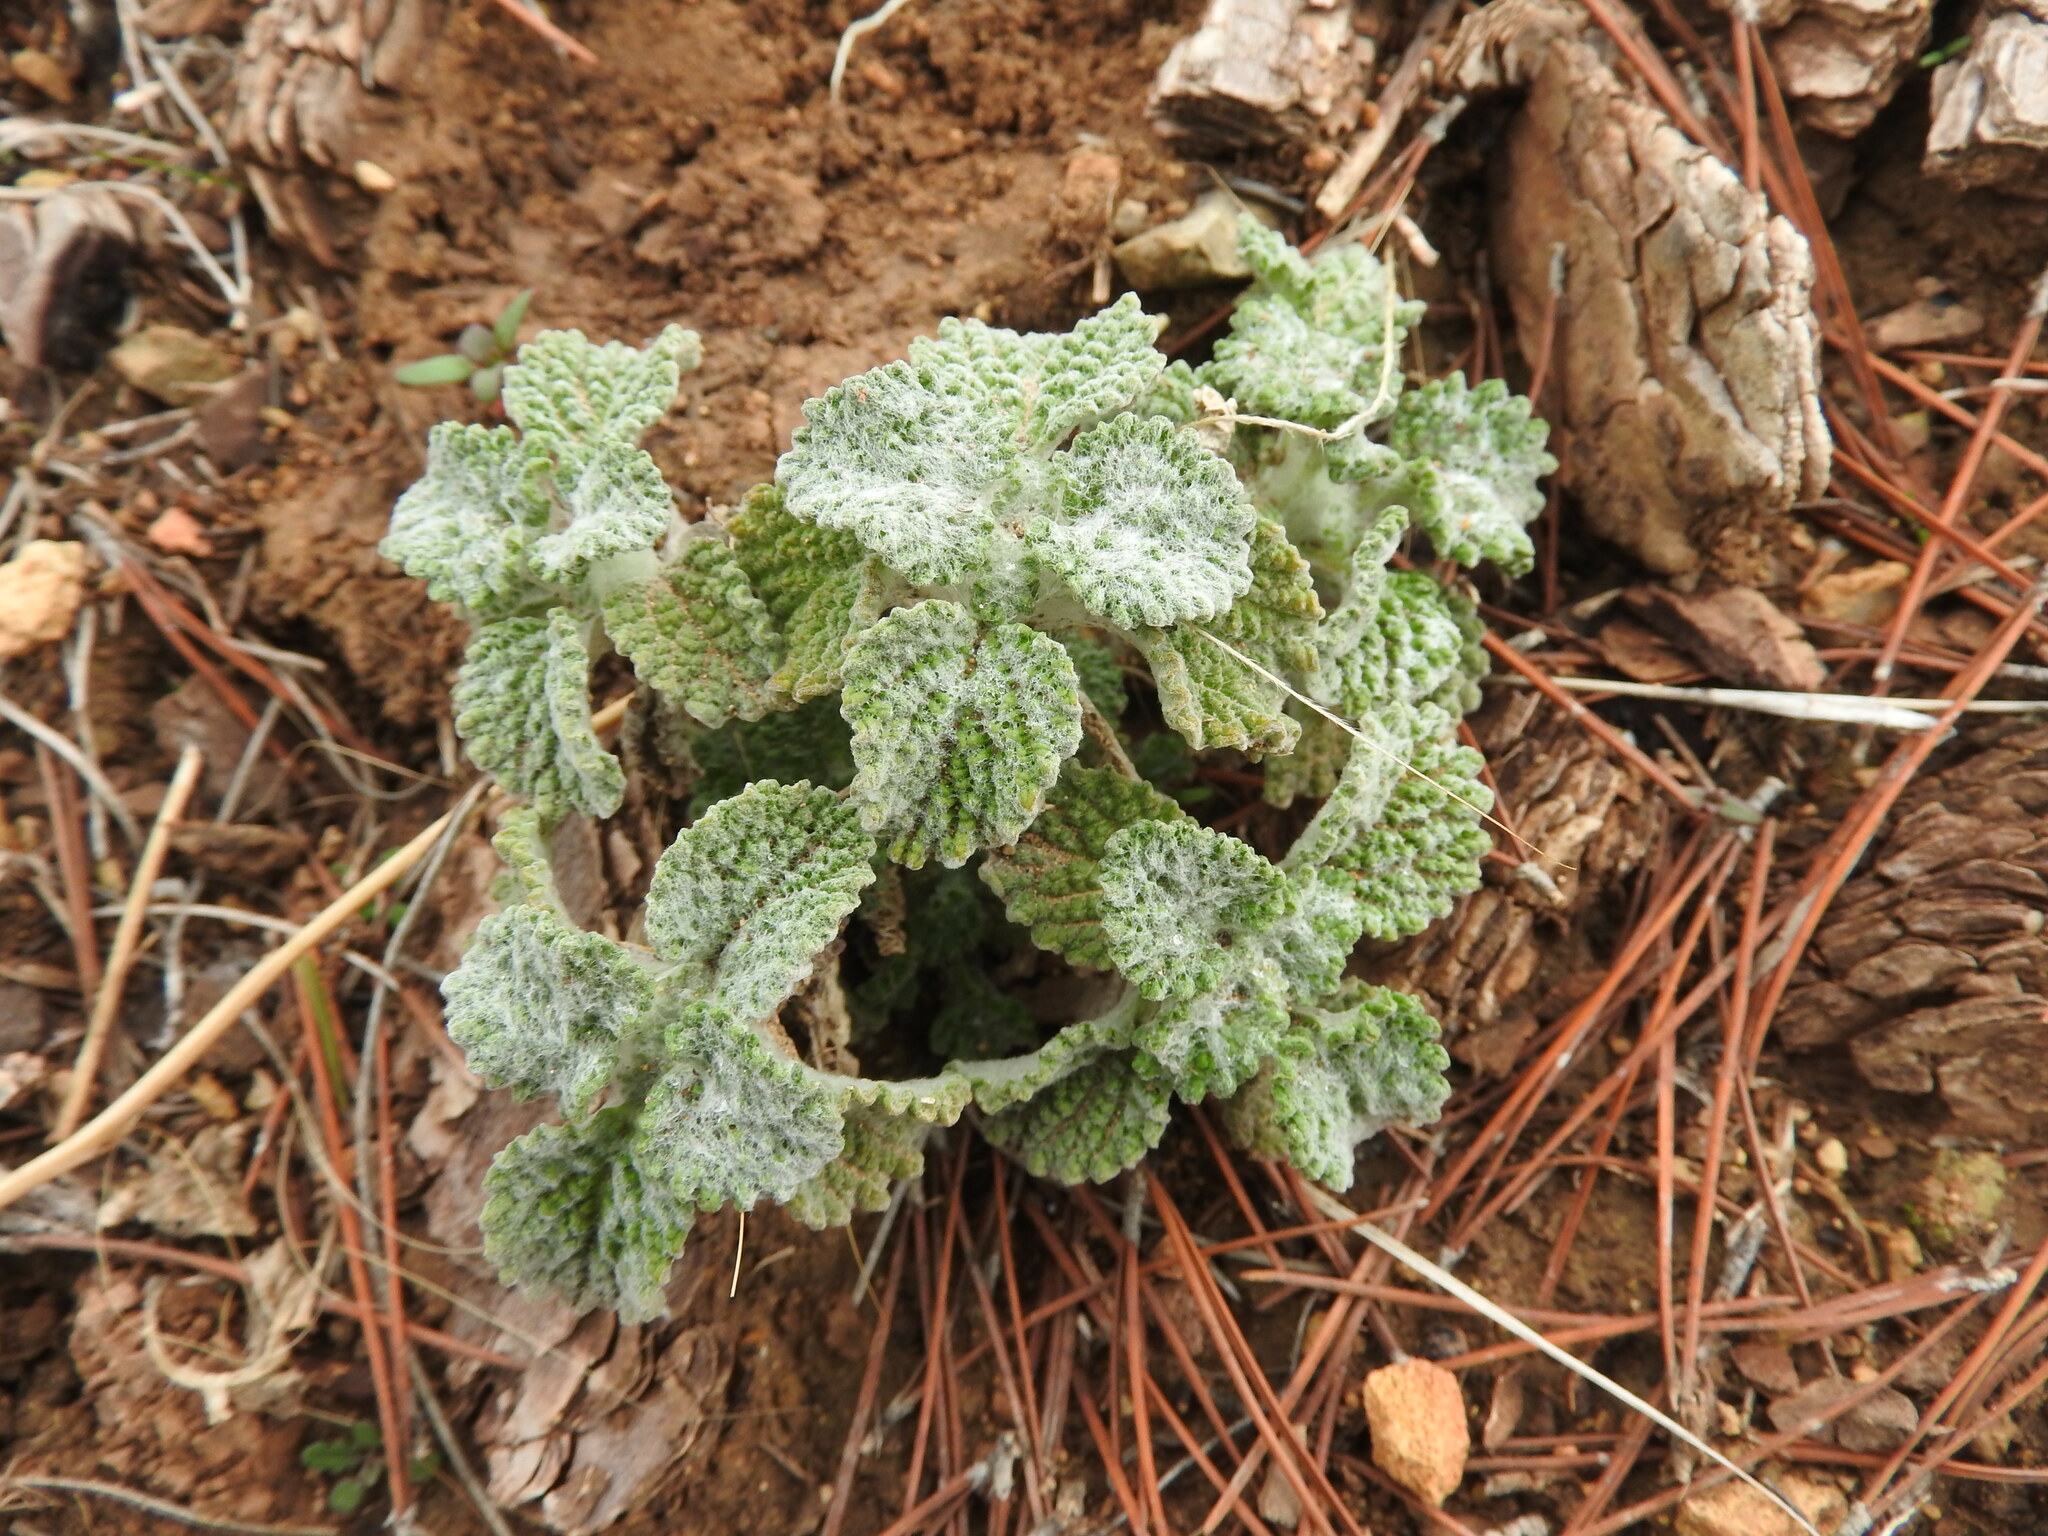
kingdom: Plantae
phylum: Tracheophyta
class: Magnoliopsida
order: Lamiales
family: Lamiaceae
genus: Marrubium
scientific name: Marrubium vulgare
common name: Horehound
